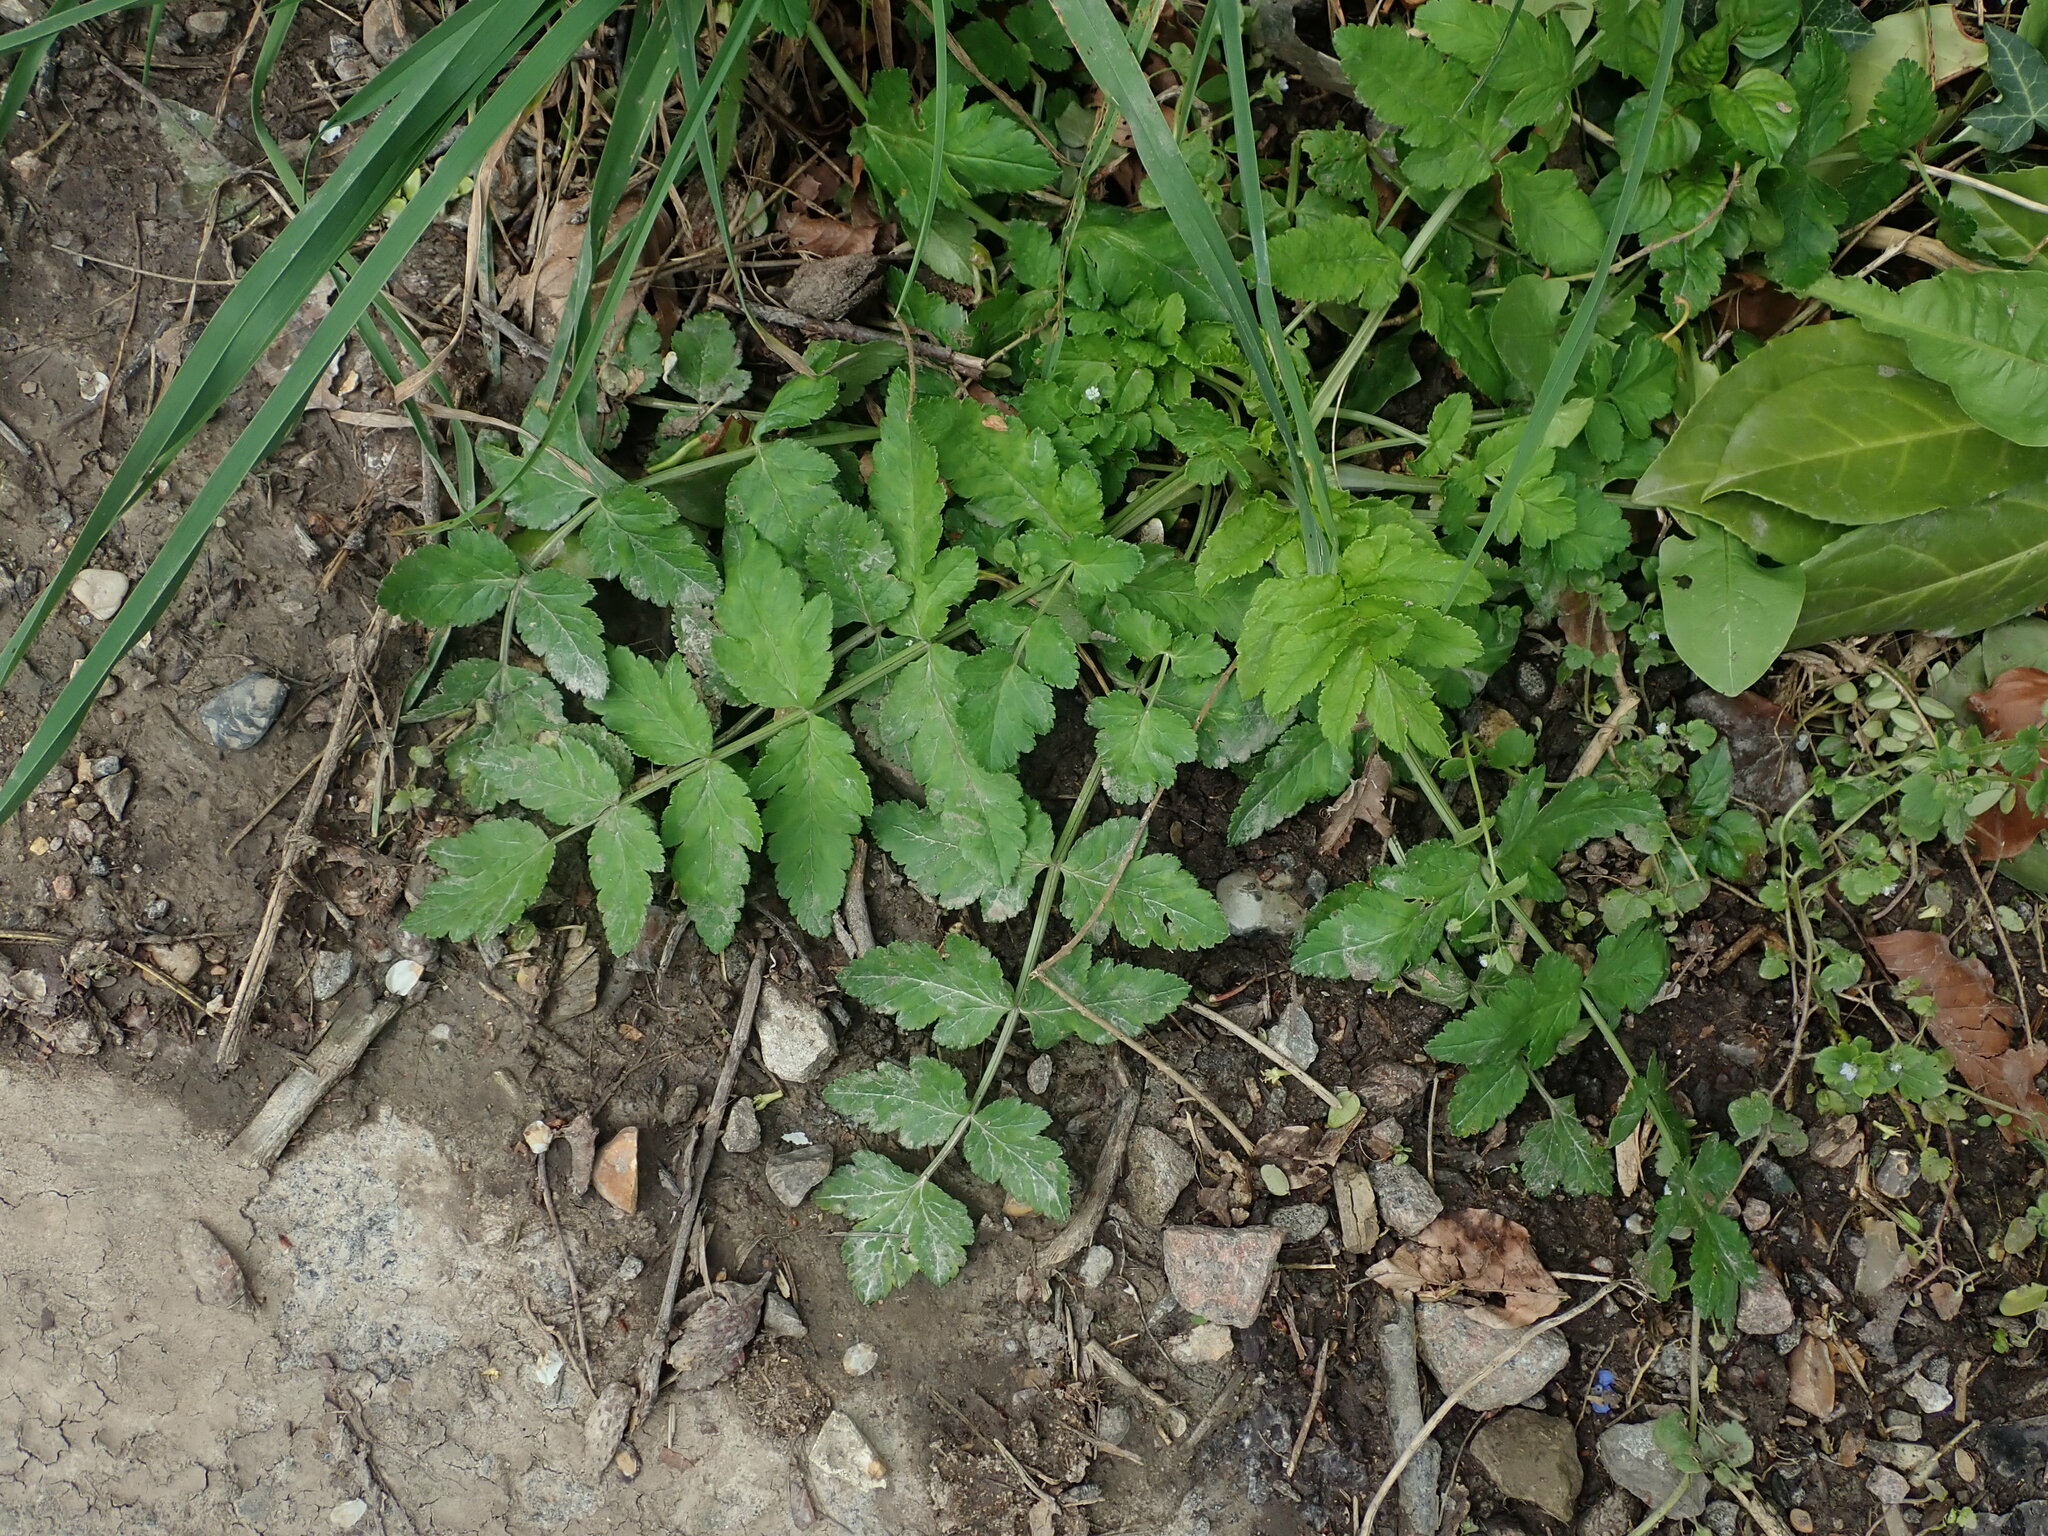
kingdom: Plantae
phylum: Tracheophyta
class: Magnoliopsida
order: Apiales
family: Apiaceae
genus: Sison
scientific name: Sison amomum
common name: Stone-parsley
